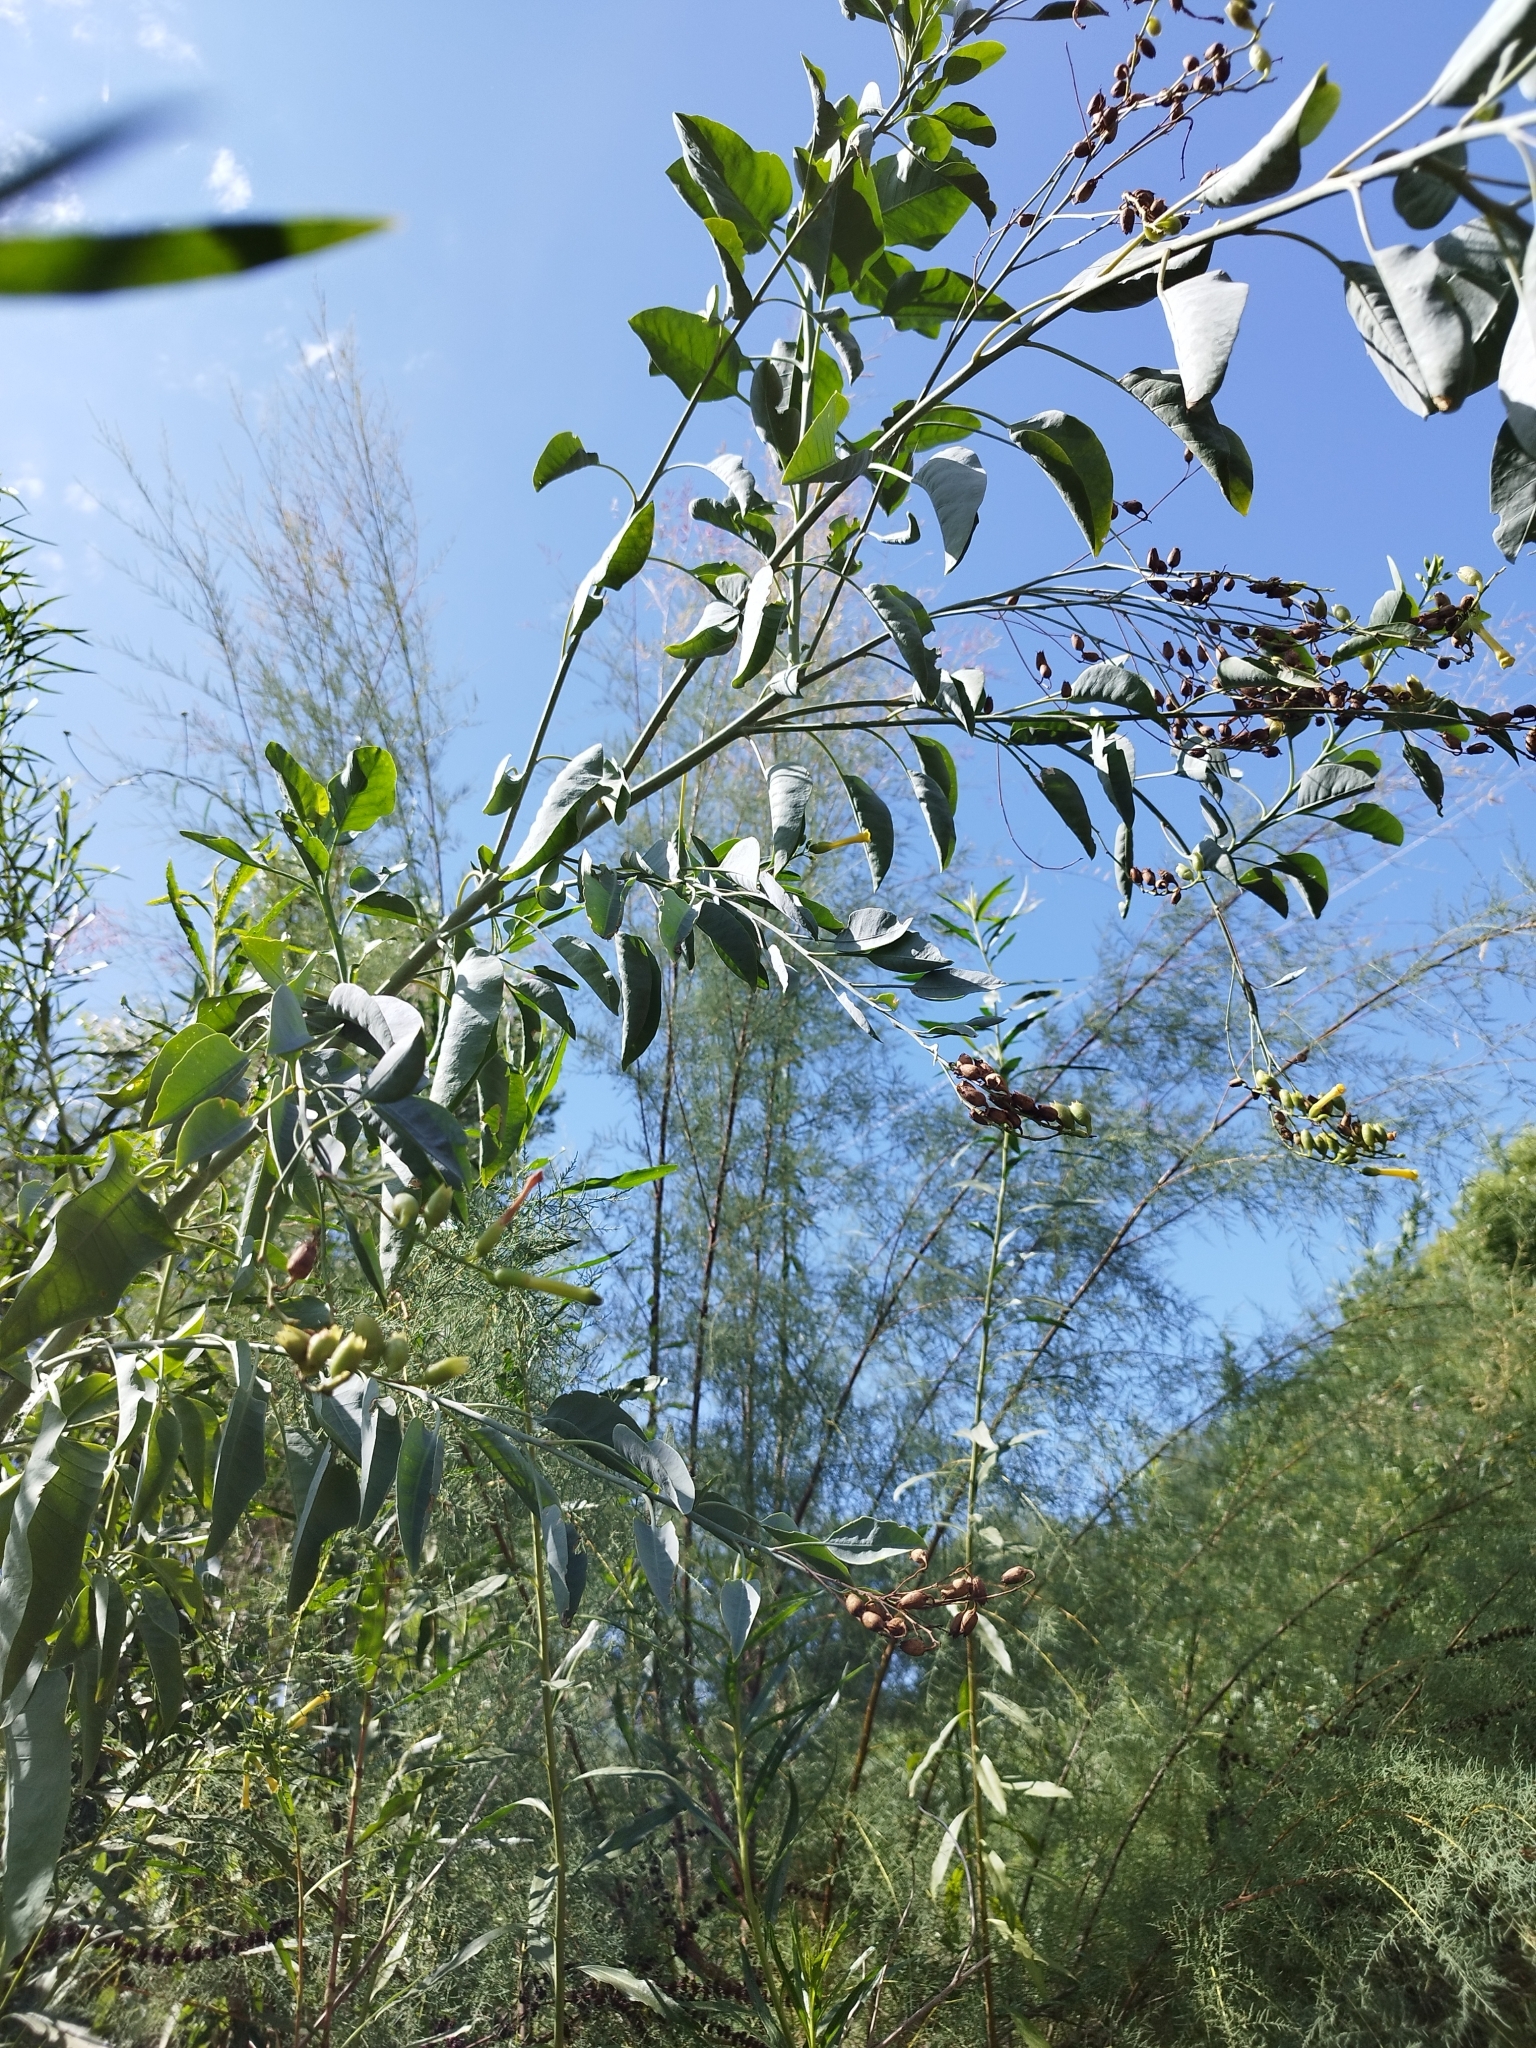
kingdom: Plantae
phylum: Tracheophyta
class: Magnoliopsida
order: Solanales
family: Solanaceae
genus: Nicotiana
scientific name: Nicotiana glauca
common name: Tree tobacco
